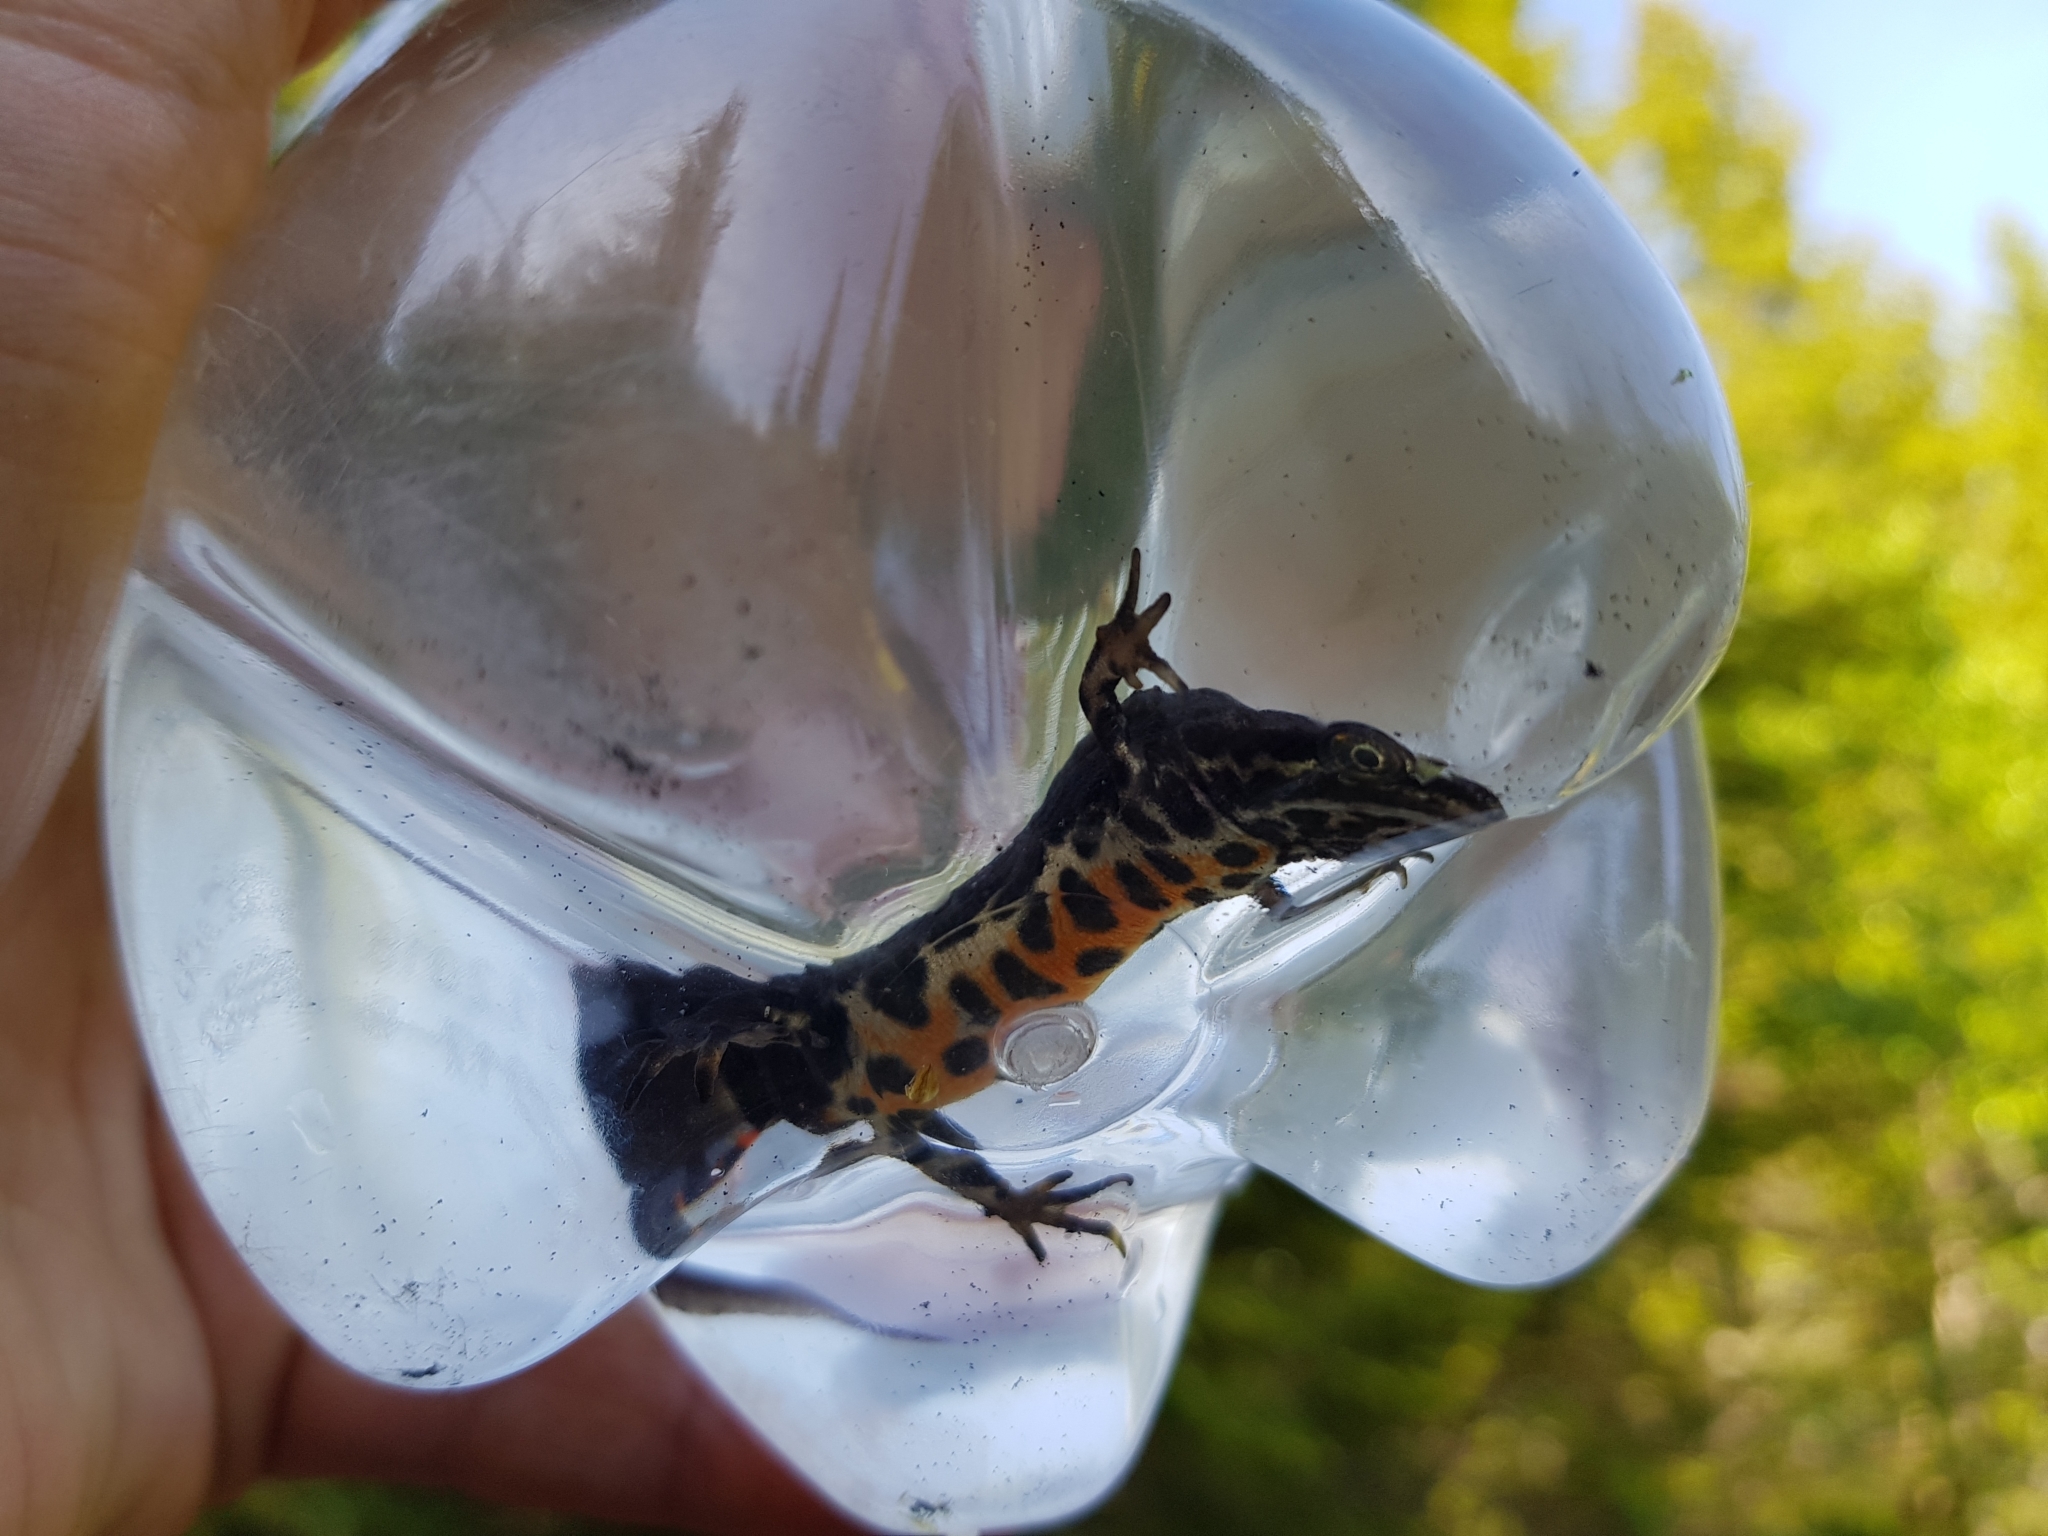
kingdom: Animalia
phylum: Chordata
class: Amphibia
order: Caudata
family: Salamandridae
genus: Lissotriton
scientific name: Lissotriton vulgaris
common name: Smooth newt
